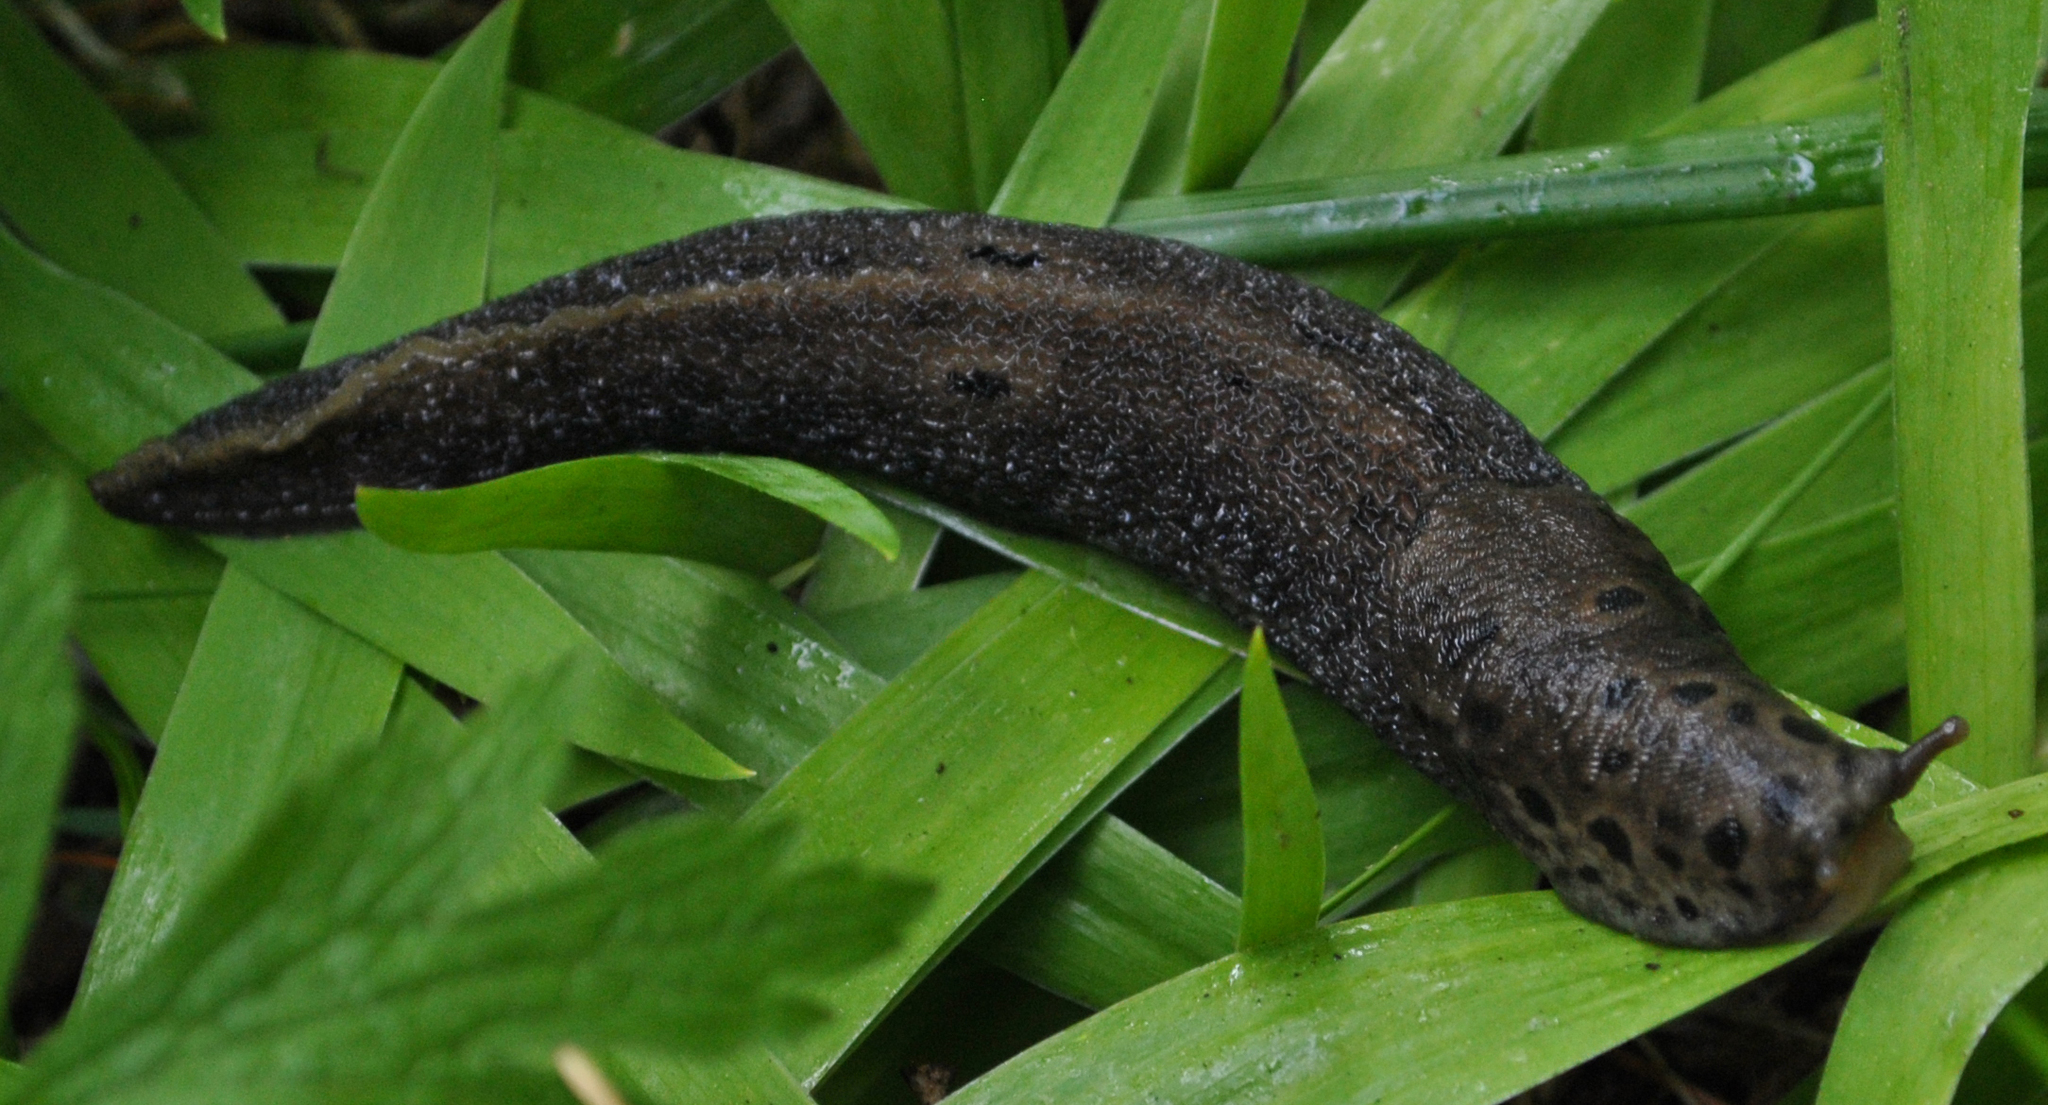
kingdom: Animalia
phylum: Mollusca
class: Gastropoda
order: Stylommatophora
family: Limacidae
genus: Limax
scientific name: Limax maximus
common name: Great grey slug
